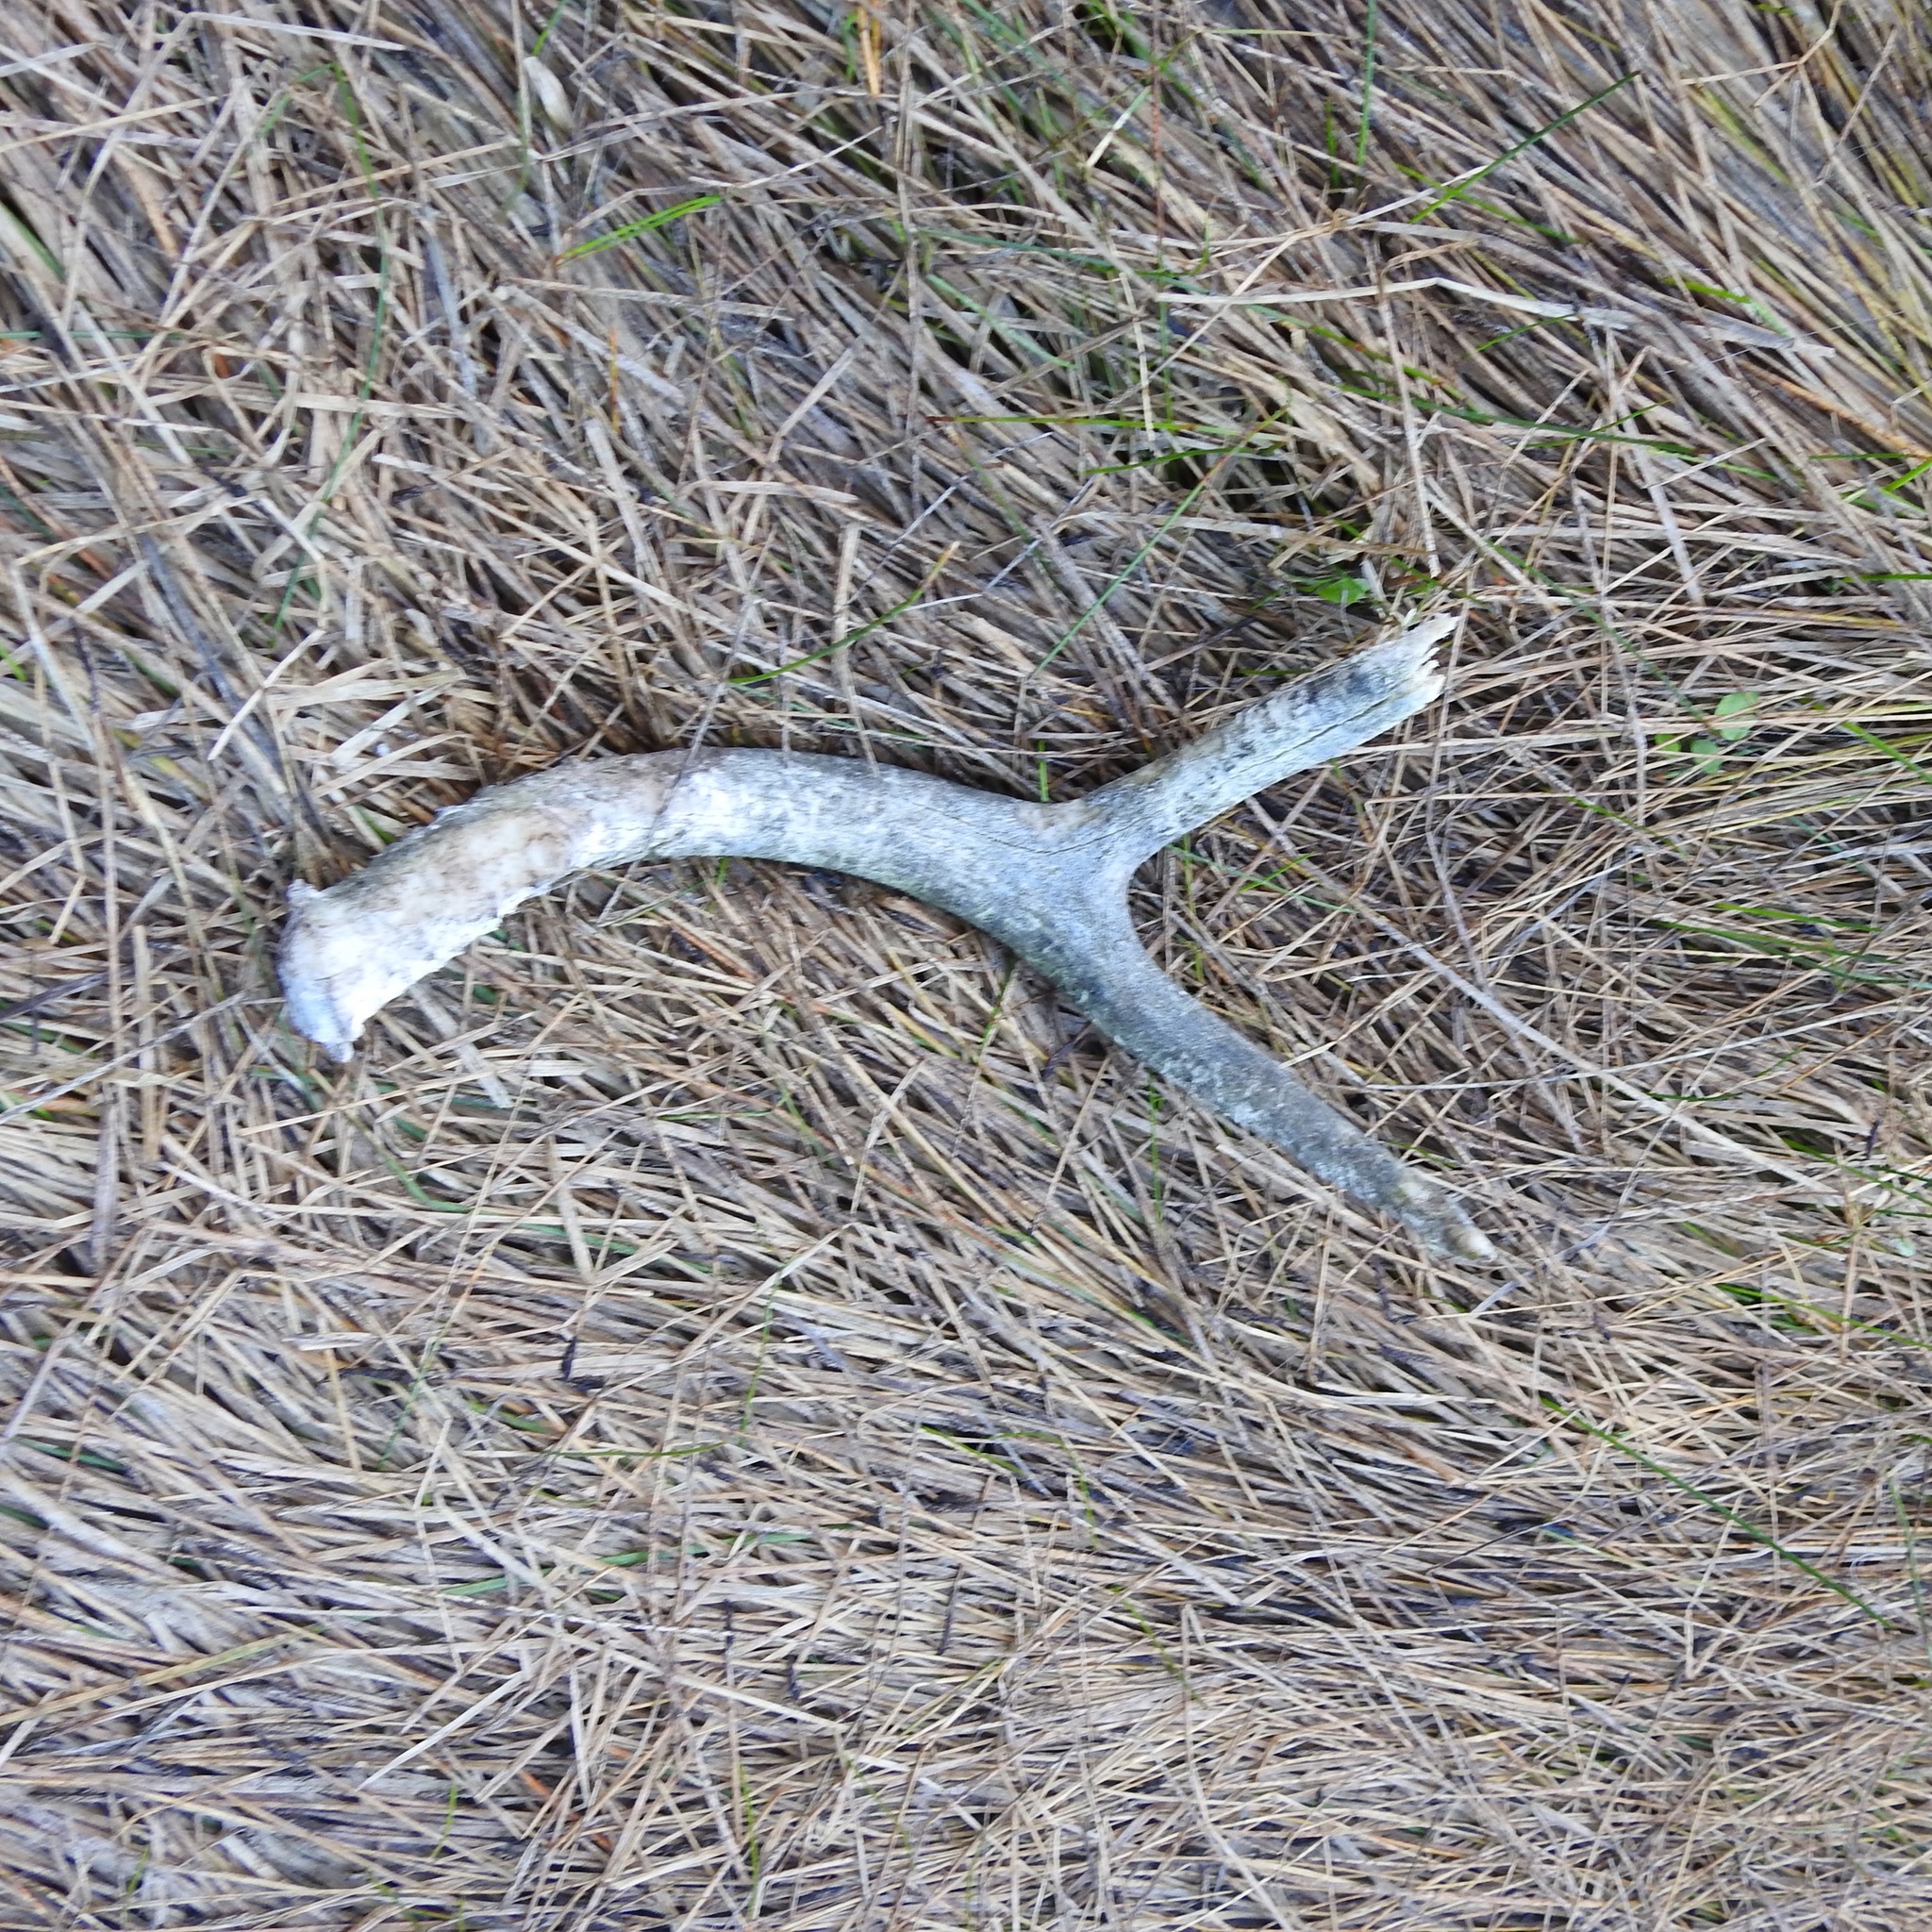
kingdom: Animalia
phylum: Chordata
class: Mammalia
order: Artiodactyla
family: Cervidae
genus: Odocoileus
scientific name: Odocoileus hemionus
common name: Mule deer
